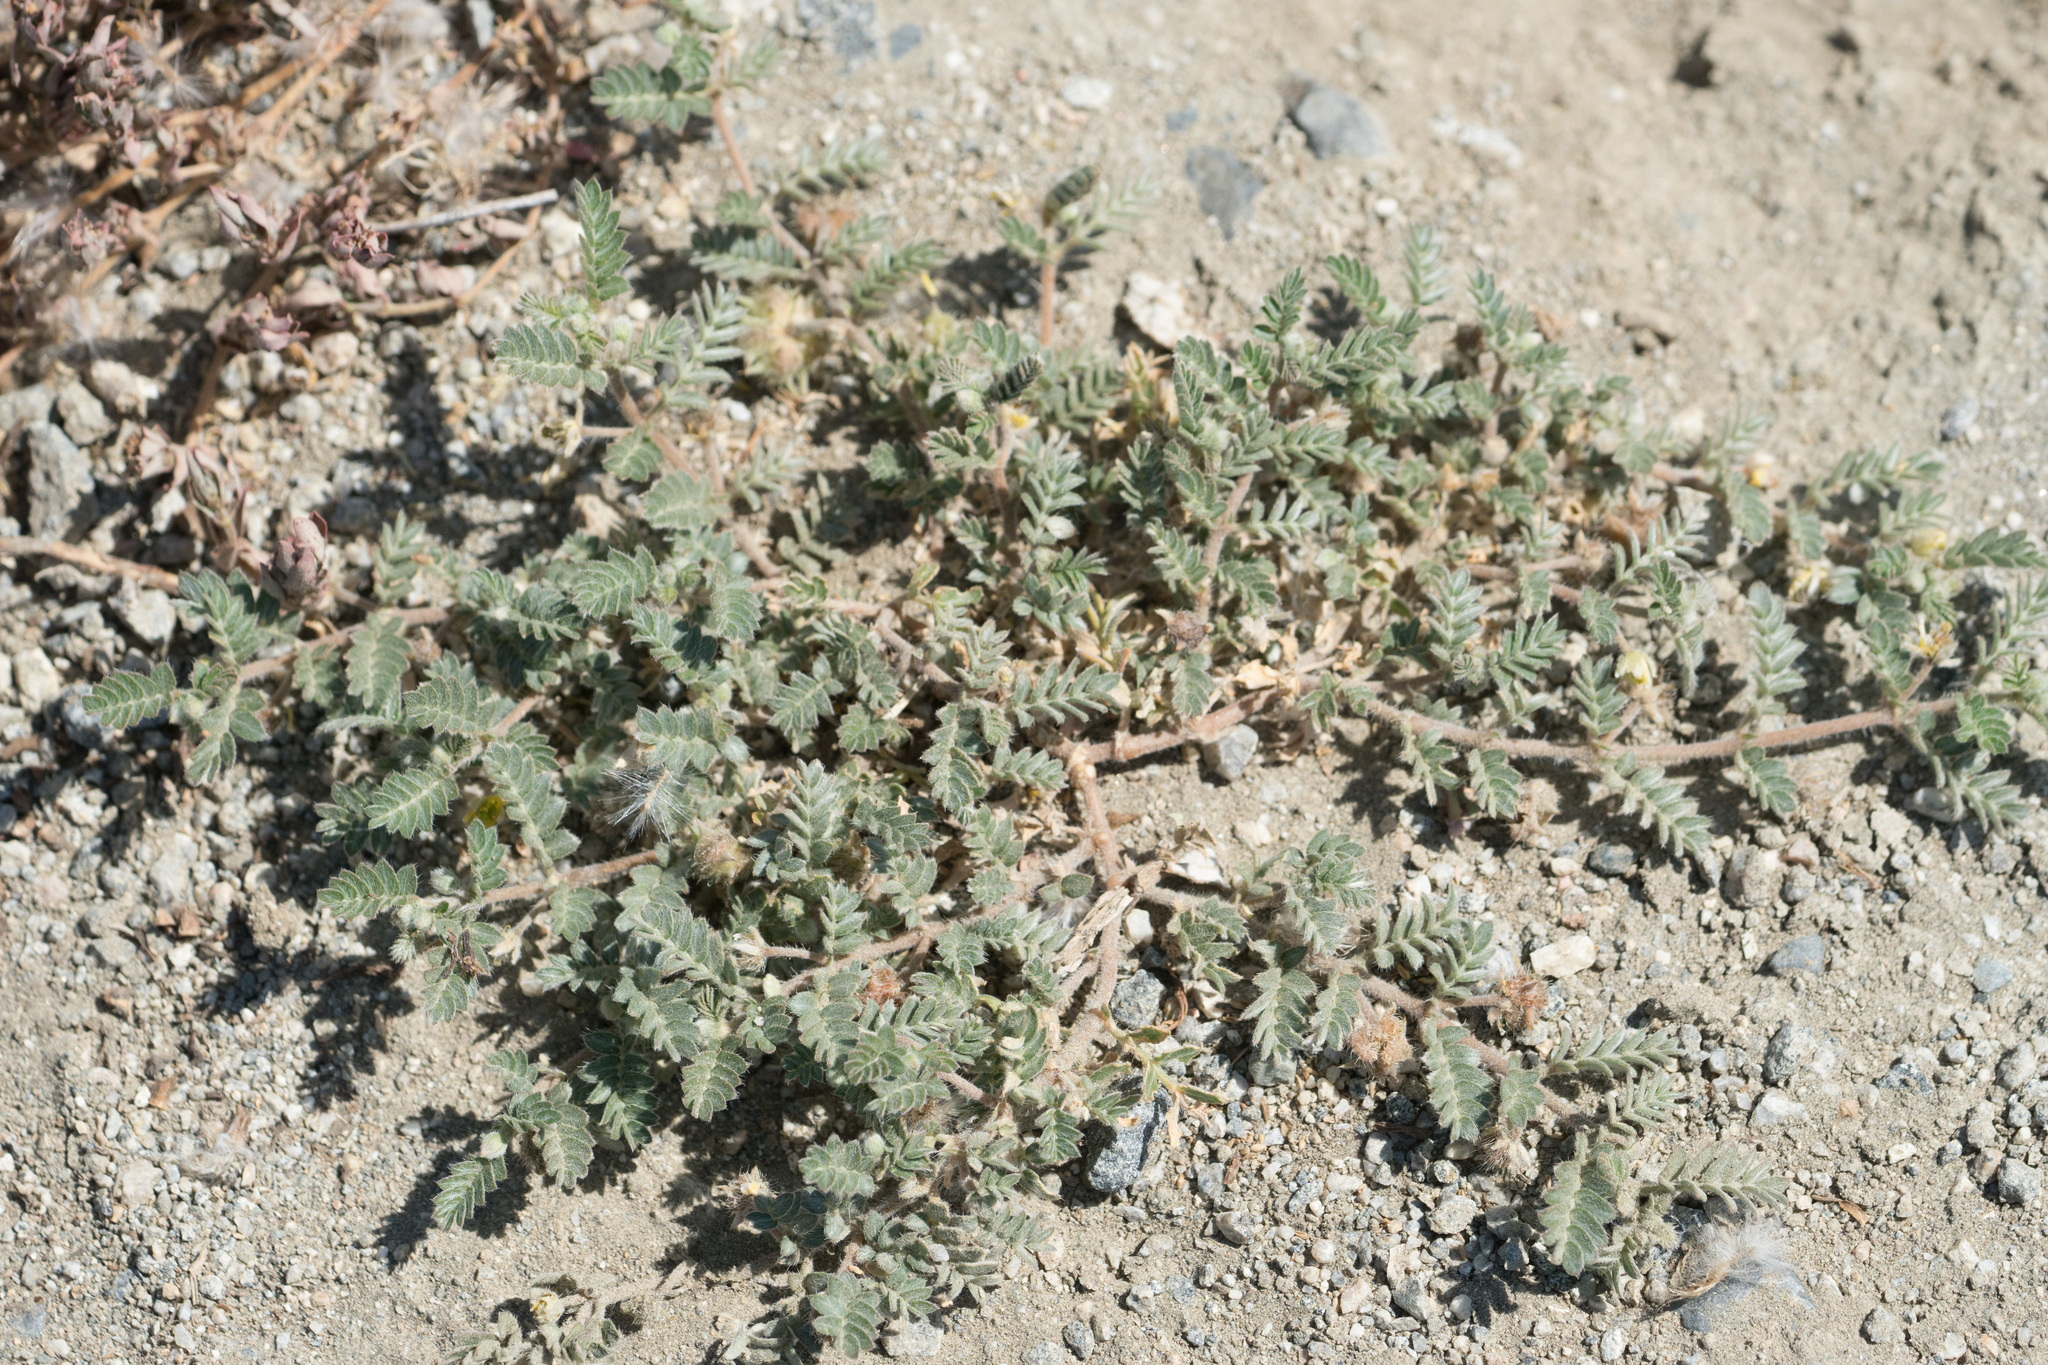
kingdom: Plantae
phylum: Tracheophyta
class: Magnoliopsida
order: Zygophyllales
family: Zygophyllaceae
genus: Tribulus
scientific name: Tribulus terrestris
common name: Puncturevine
